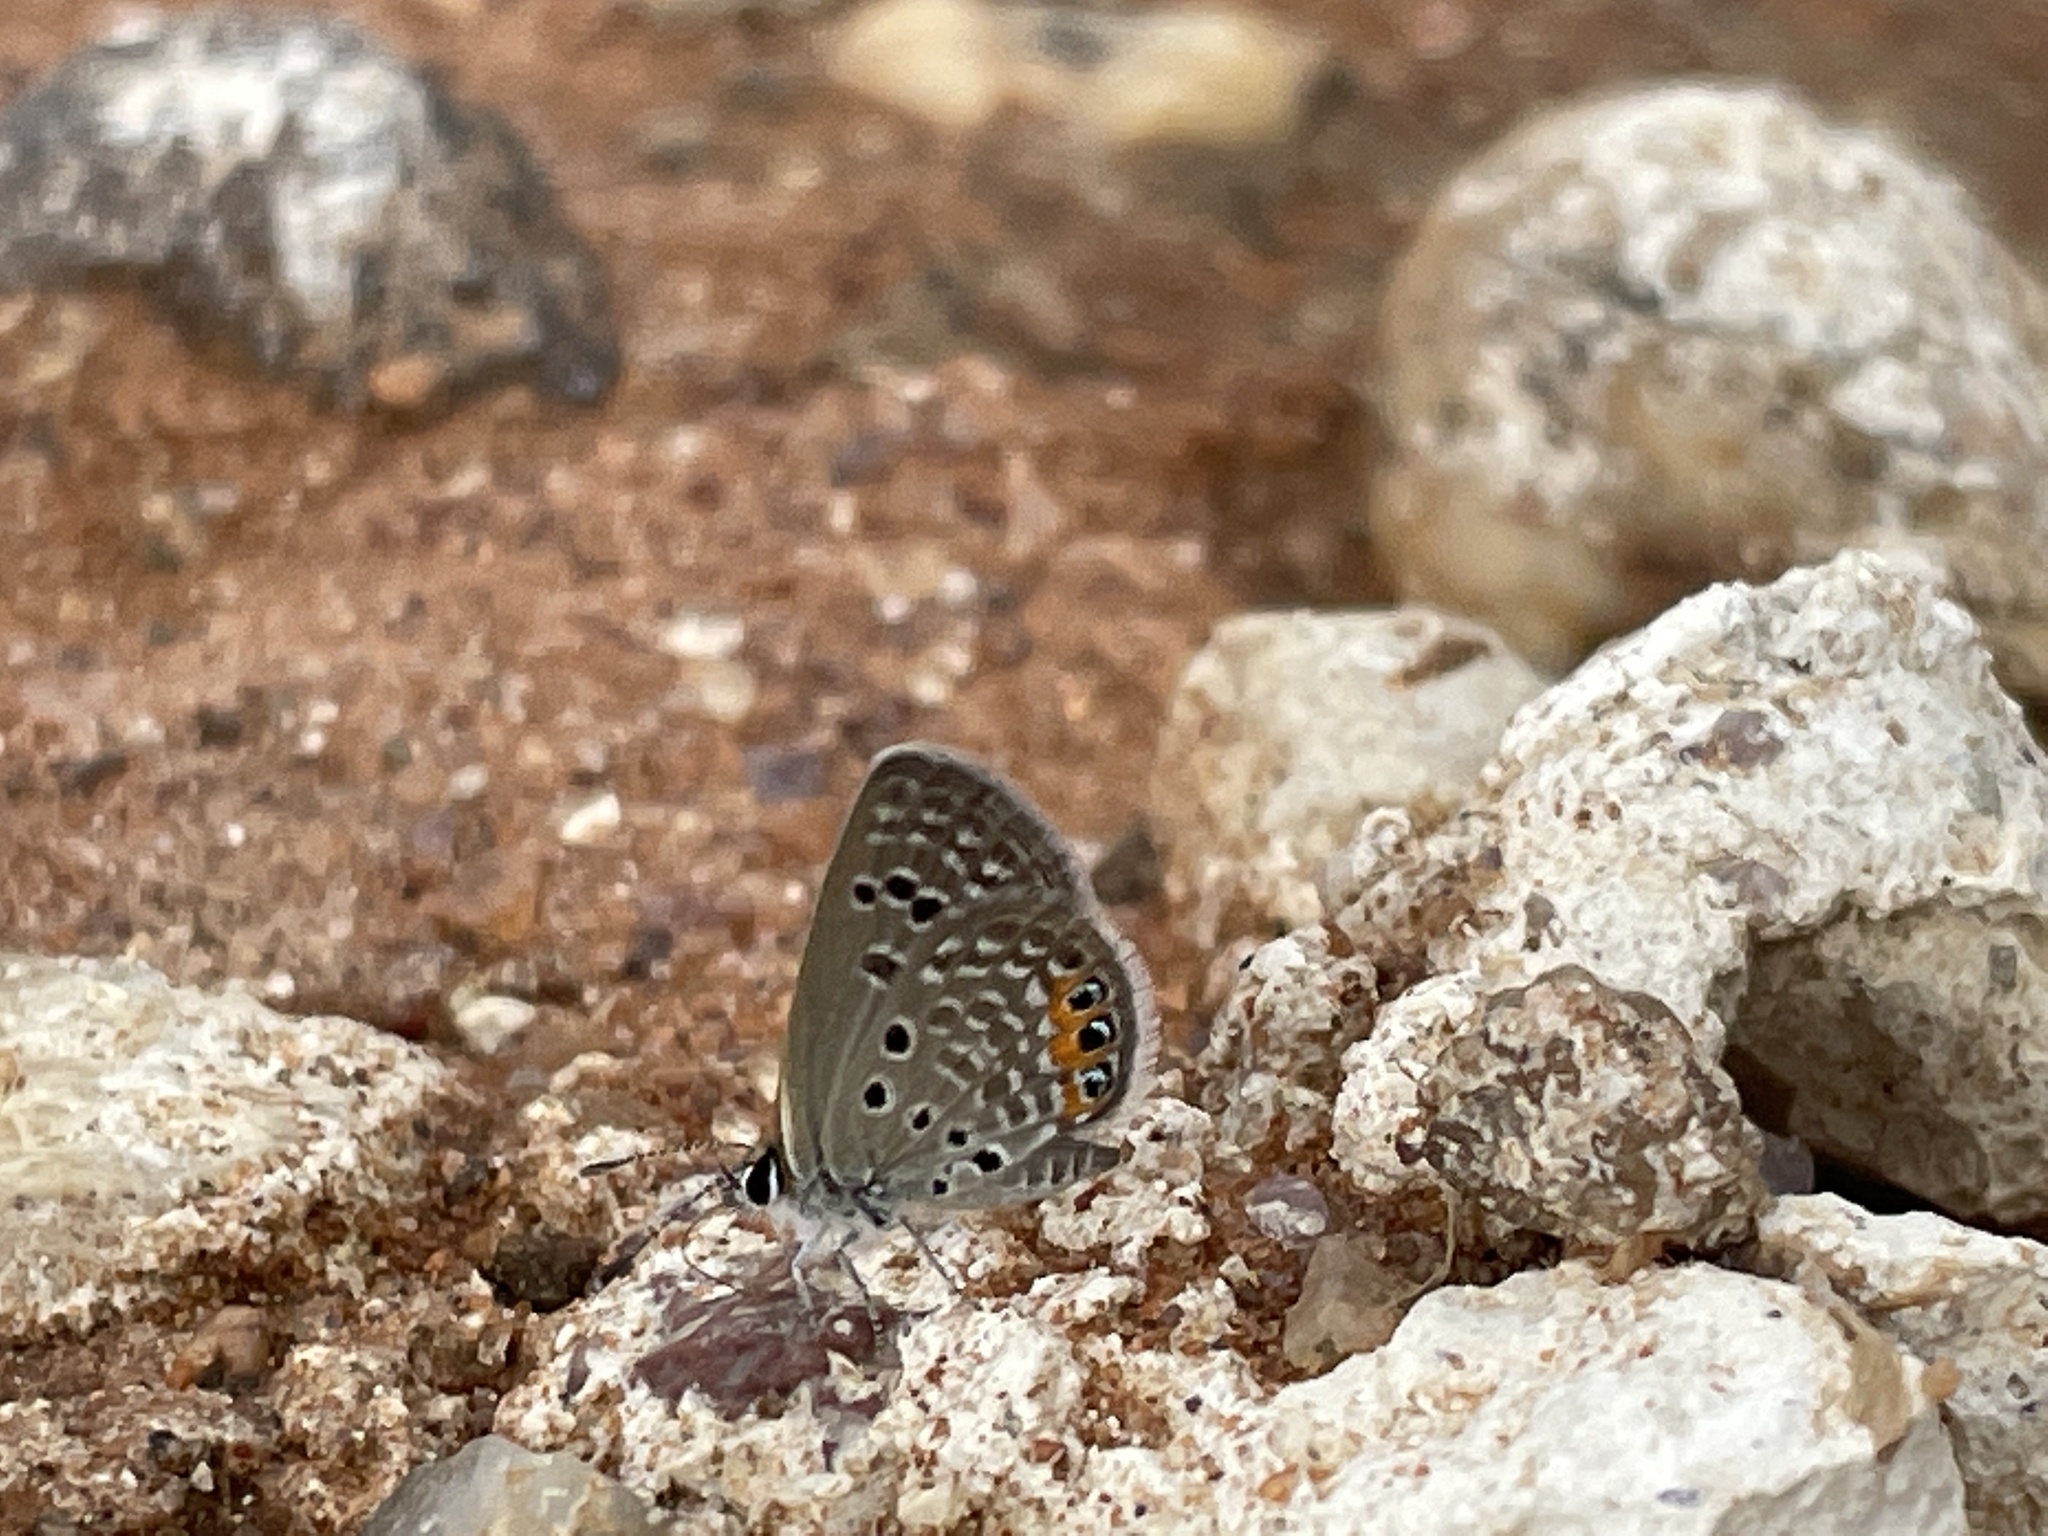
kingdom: Animalia
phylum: Arthropoda
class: Insecta
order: Lepidoptera
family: Lycaenidae
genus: Freyeria
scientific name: Freyeria trochylus
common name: Grass jewel
